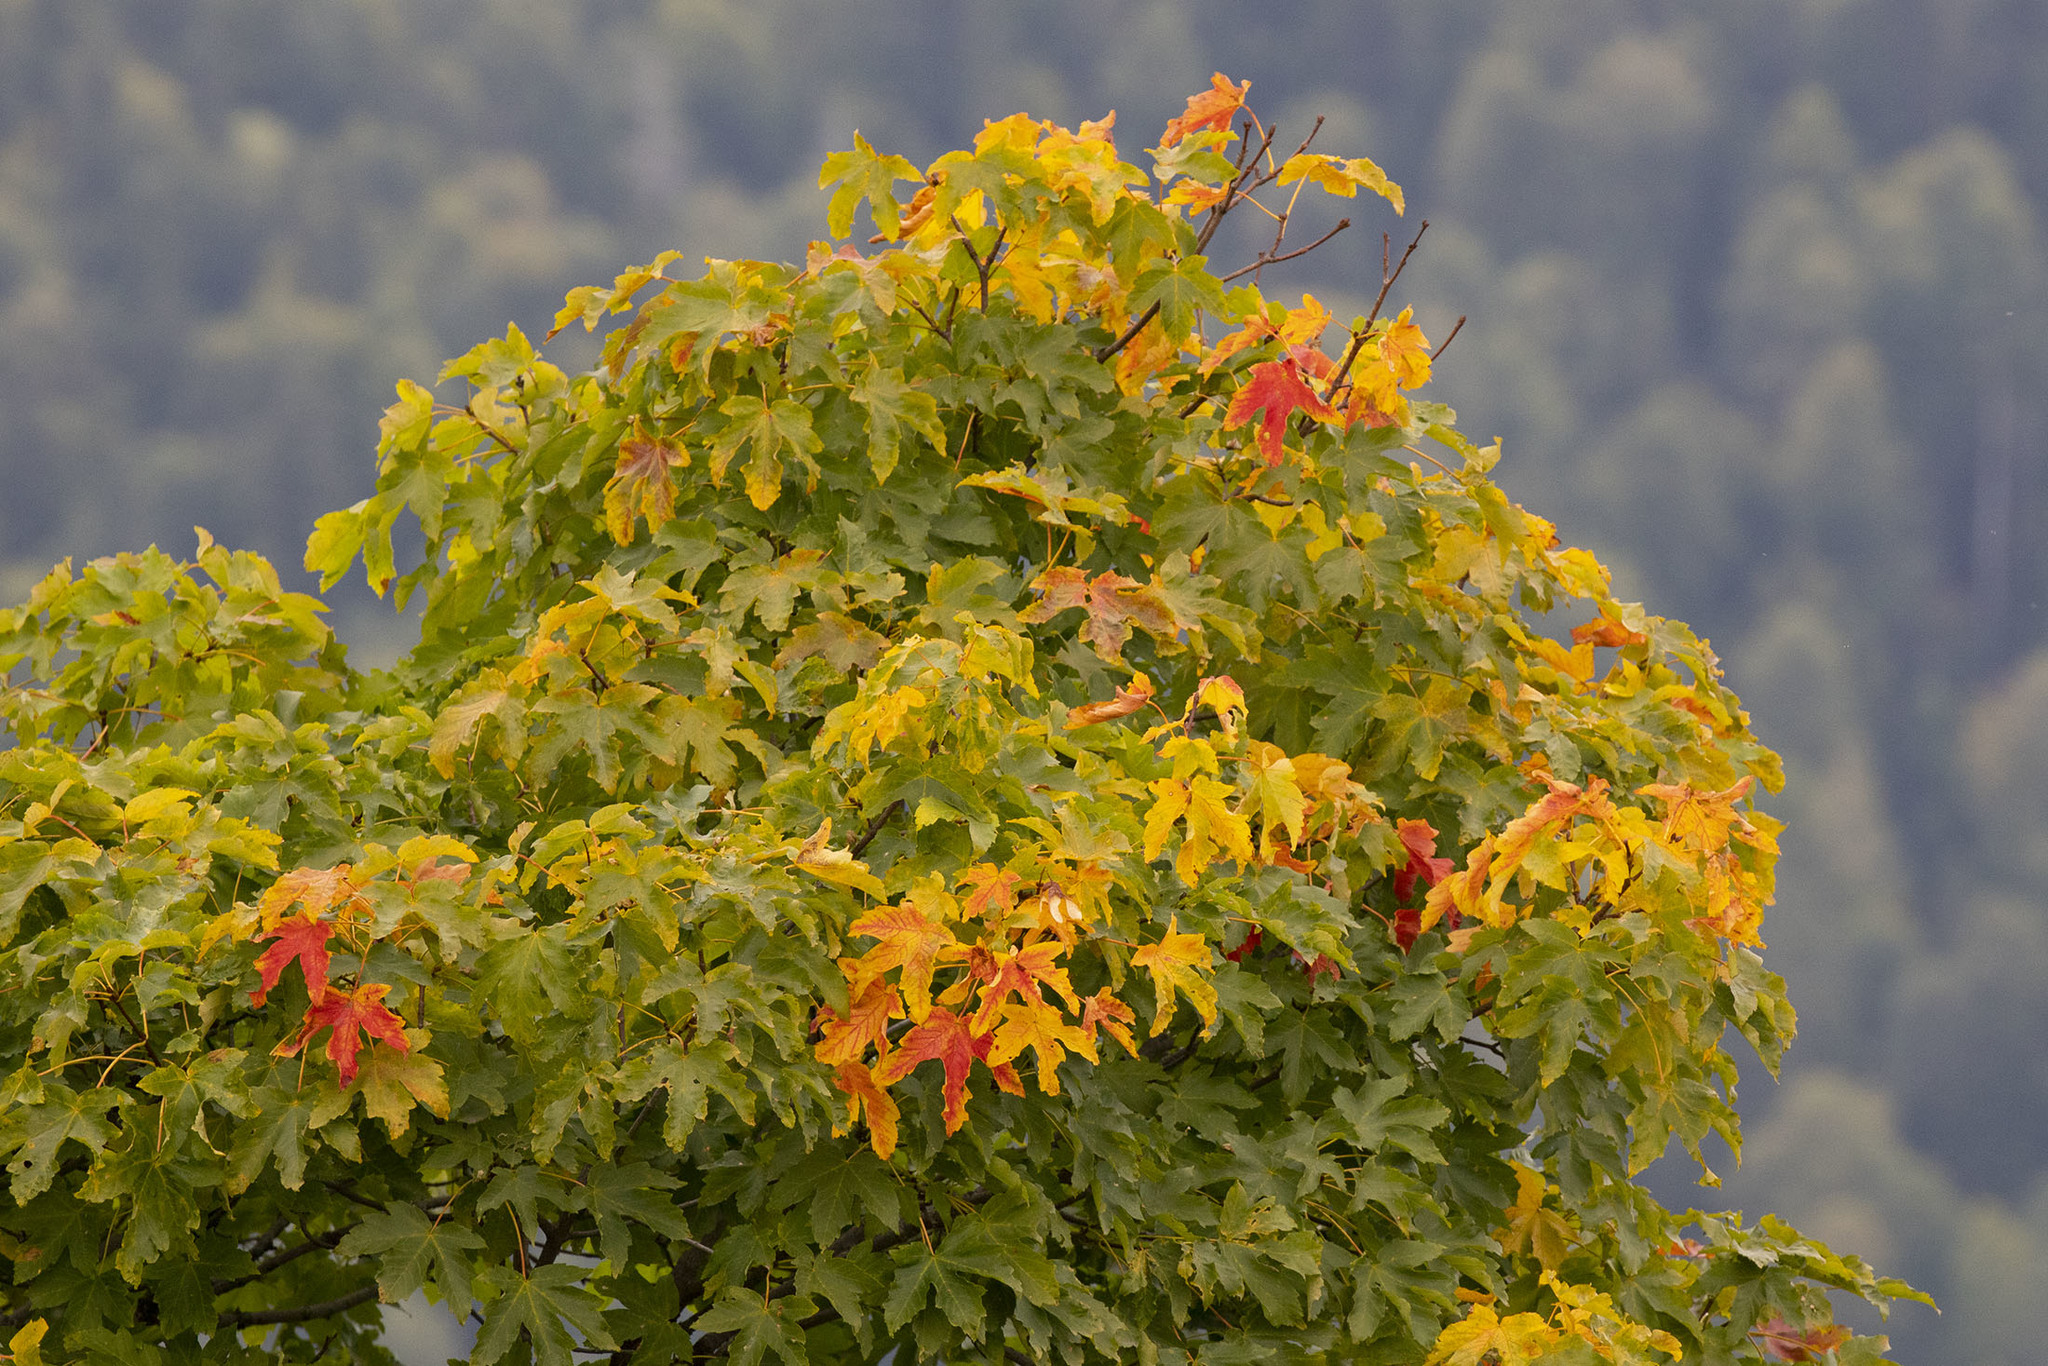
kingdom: Plantae
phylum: Tracheophyta
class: Magnoliopsida
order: Sapindales
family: Sapindaceae
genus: Acer
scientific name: Acer pseudoplatanus
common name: Sycamore
